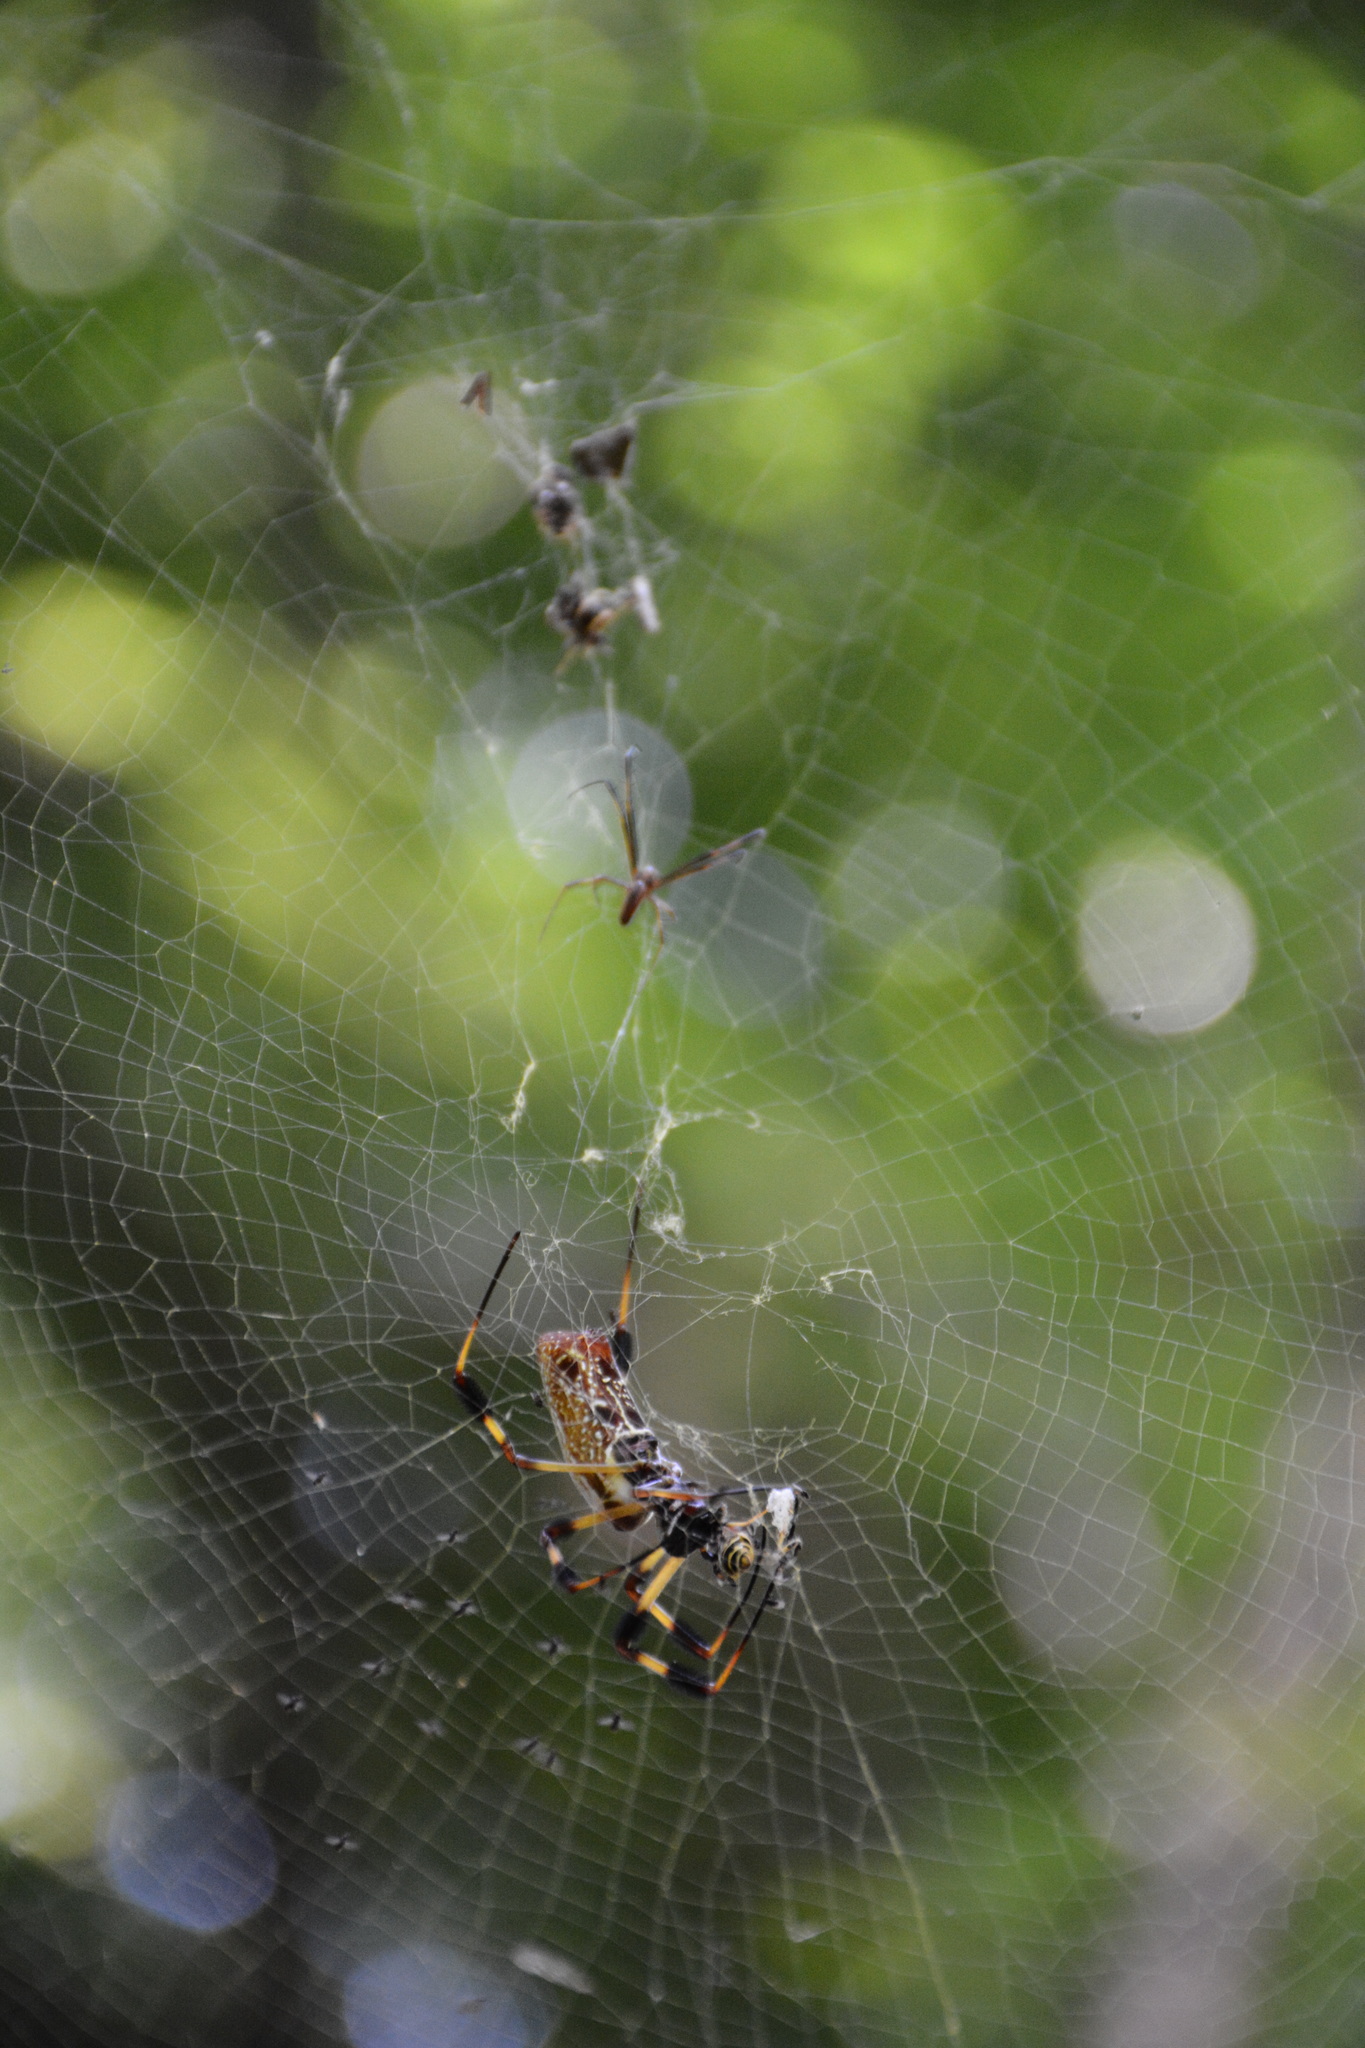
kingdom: Animalia
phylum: Arthropoda
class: Arachnida
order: Araneae
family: Araneidae
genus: Trichonephila
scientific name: Trichonephila clavipes
